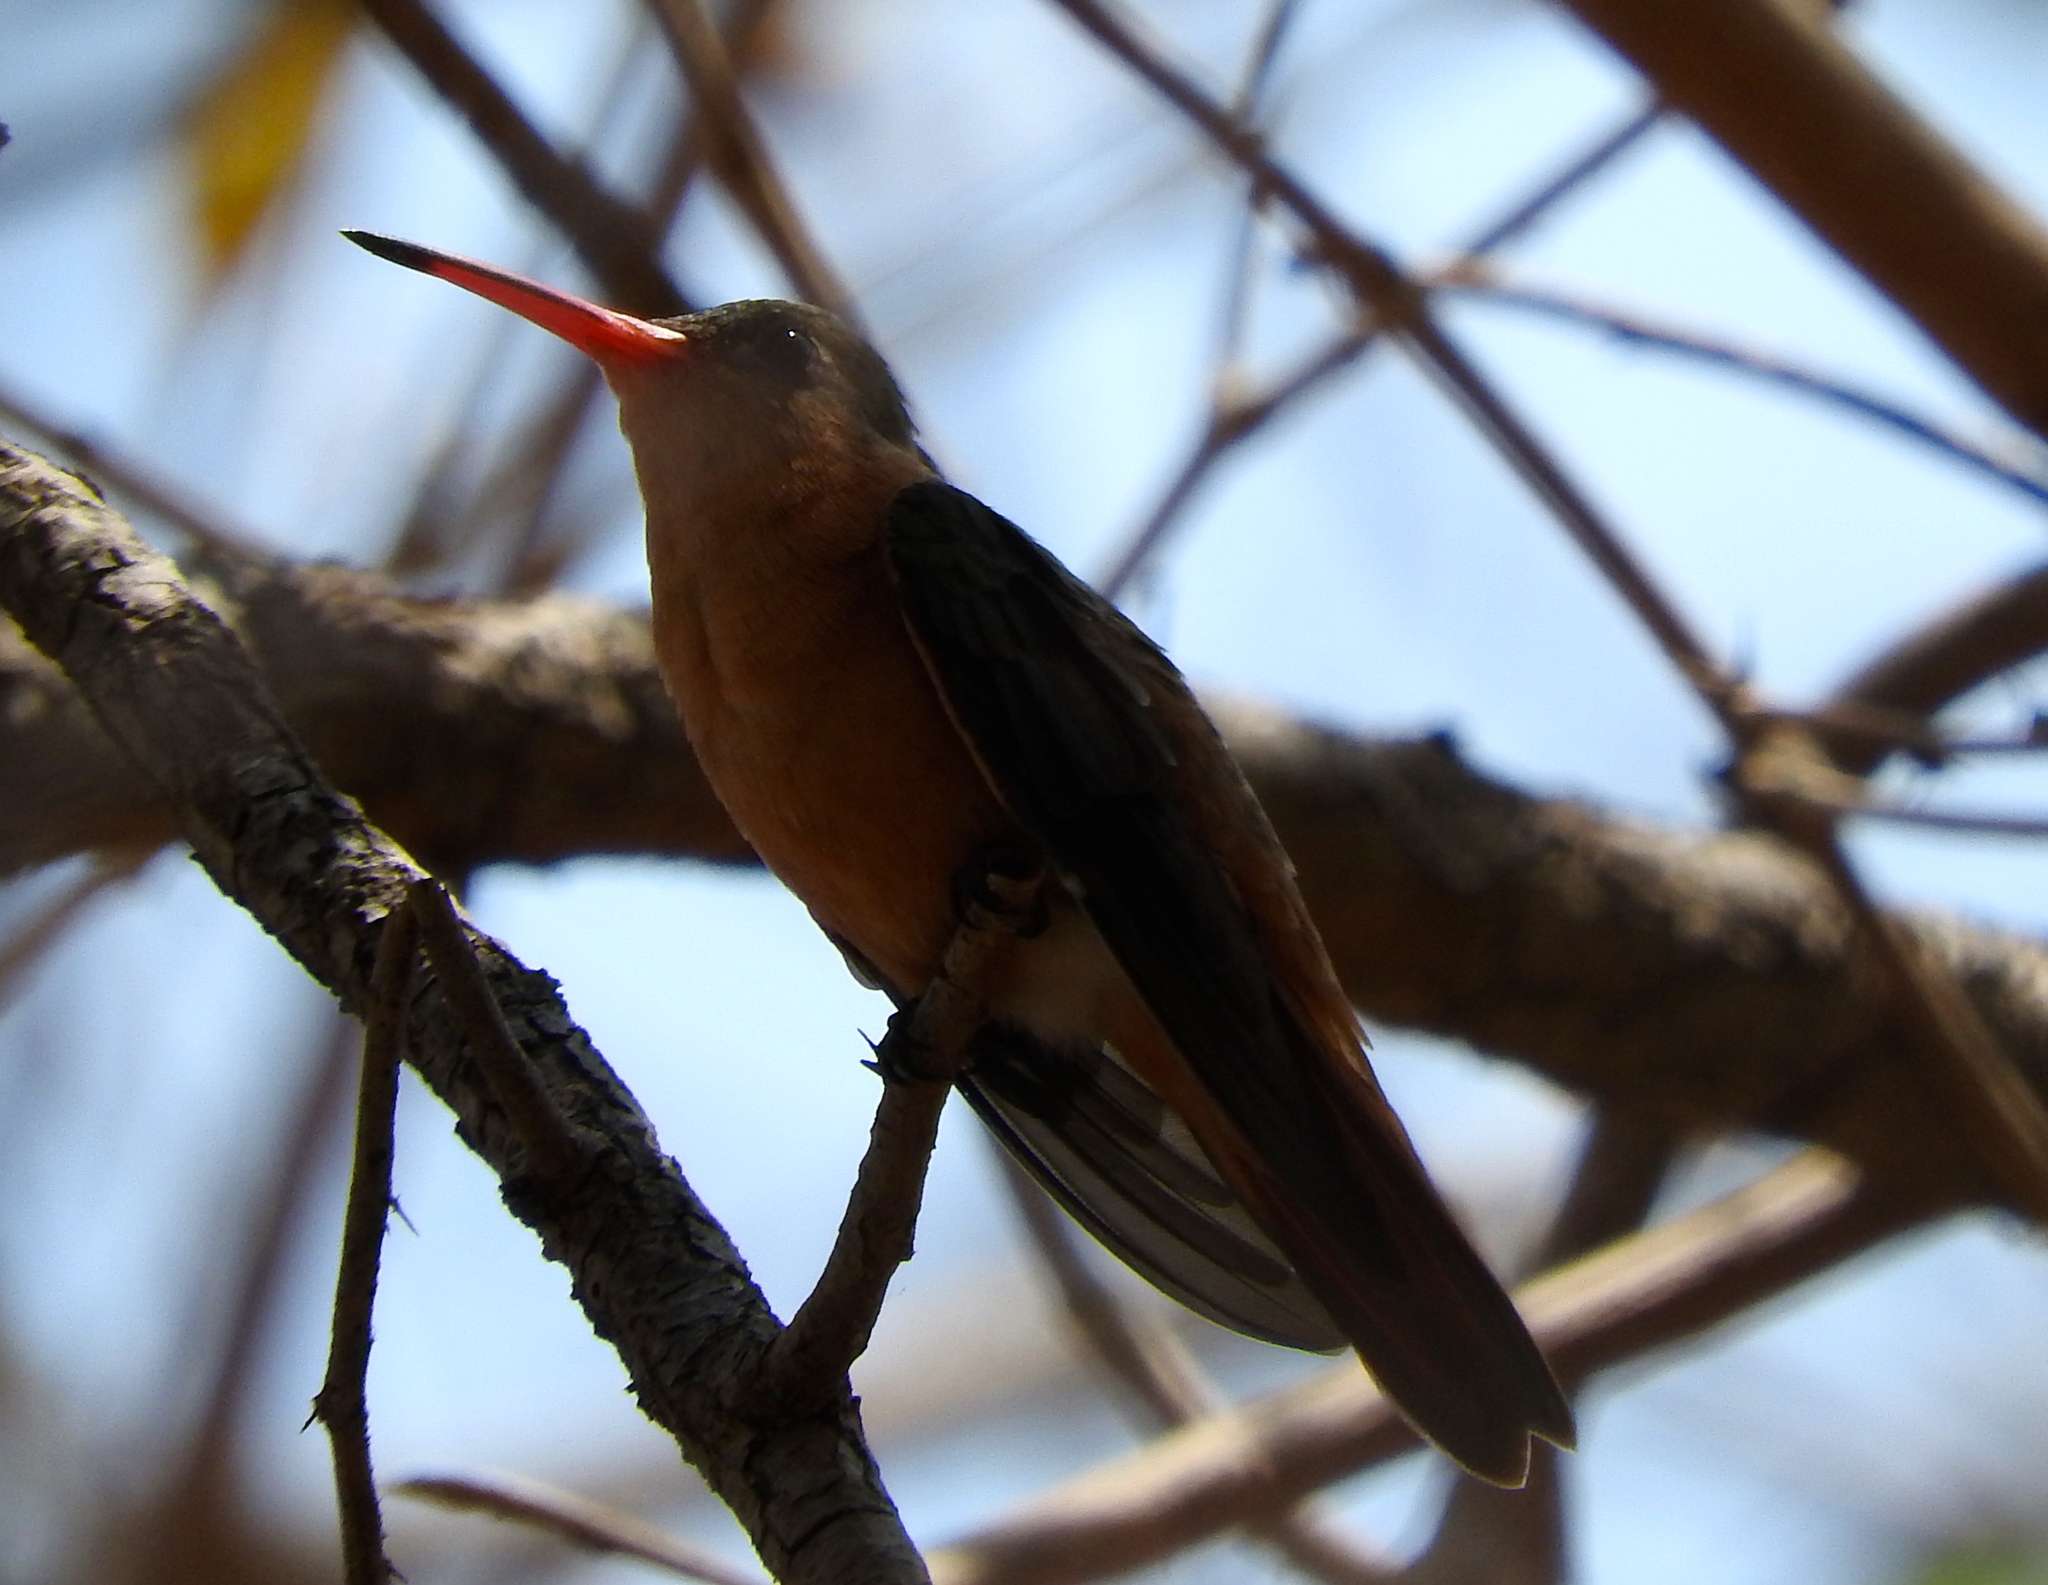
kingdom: Animalia
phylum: Chordata
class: Aves
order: Apodiformes
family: Trochilidae
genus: Amazilia
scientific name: Amazilia rutila
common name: Cinnamon hummingbird
